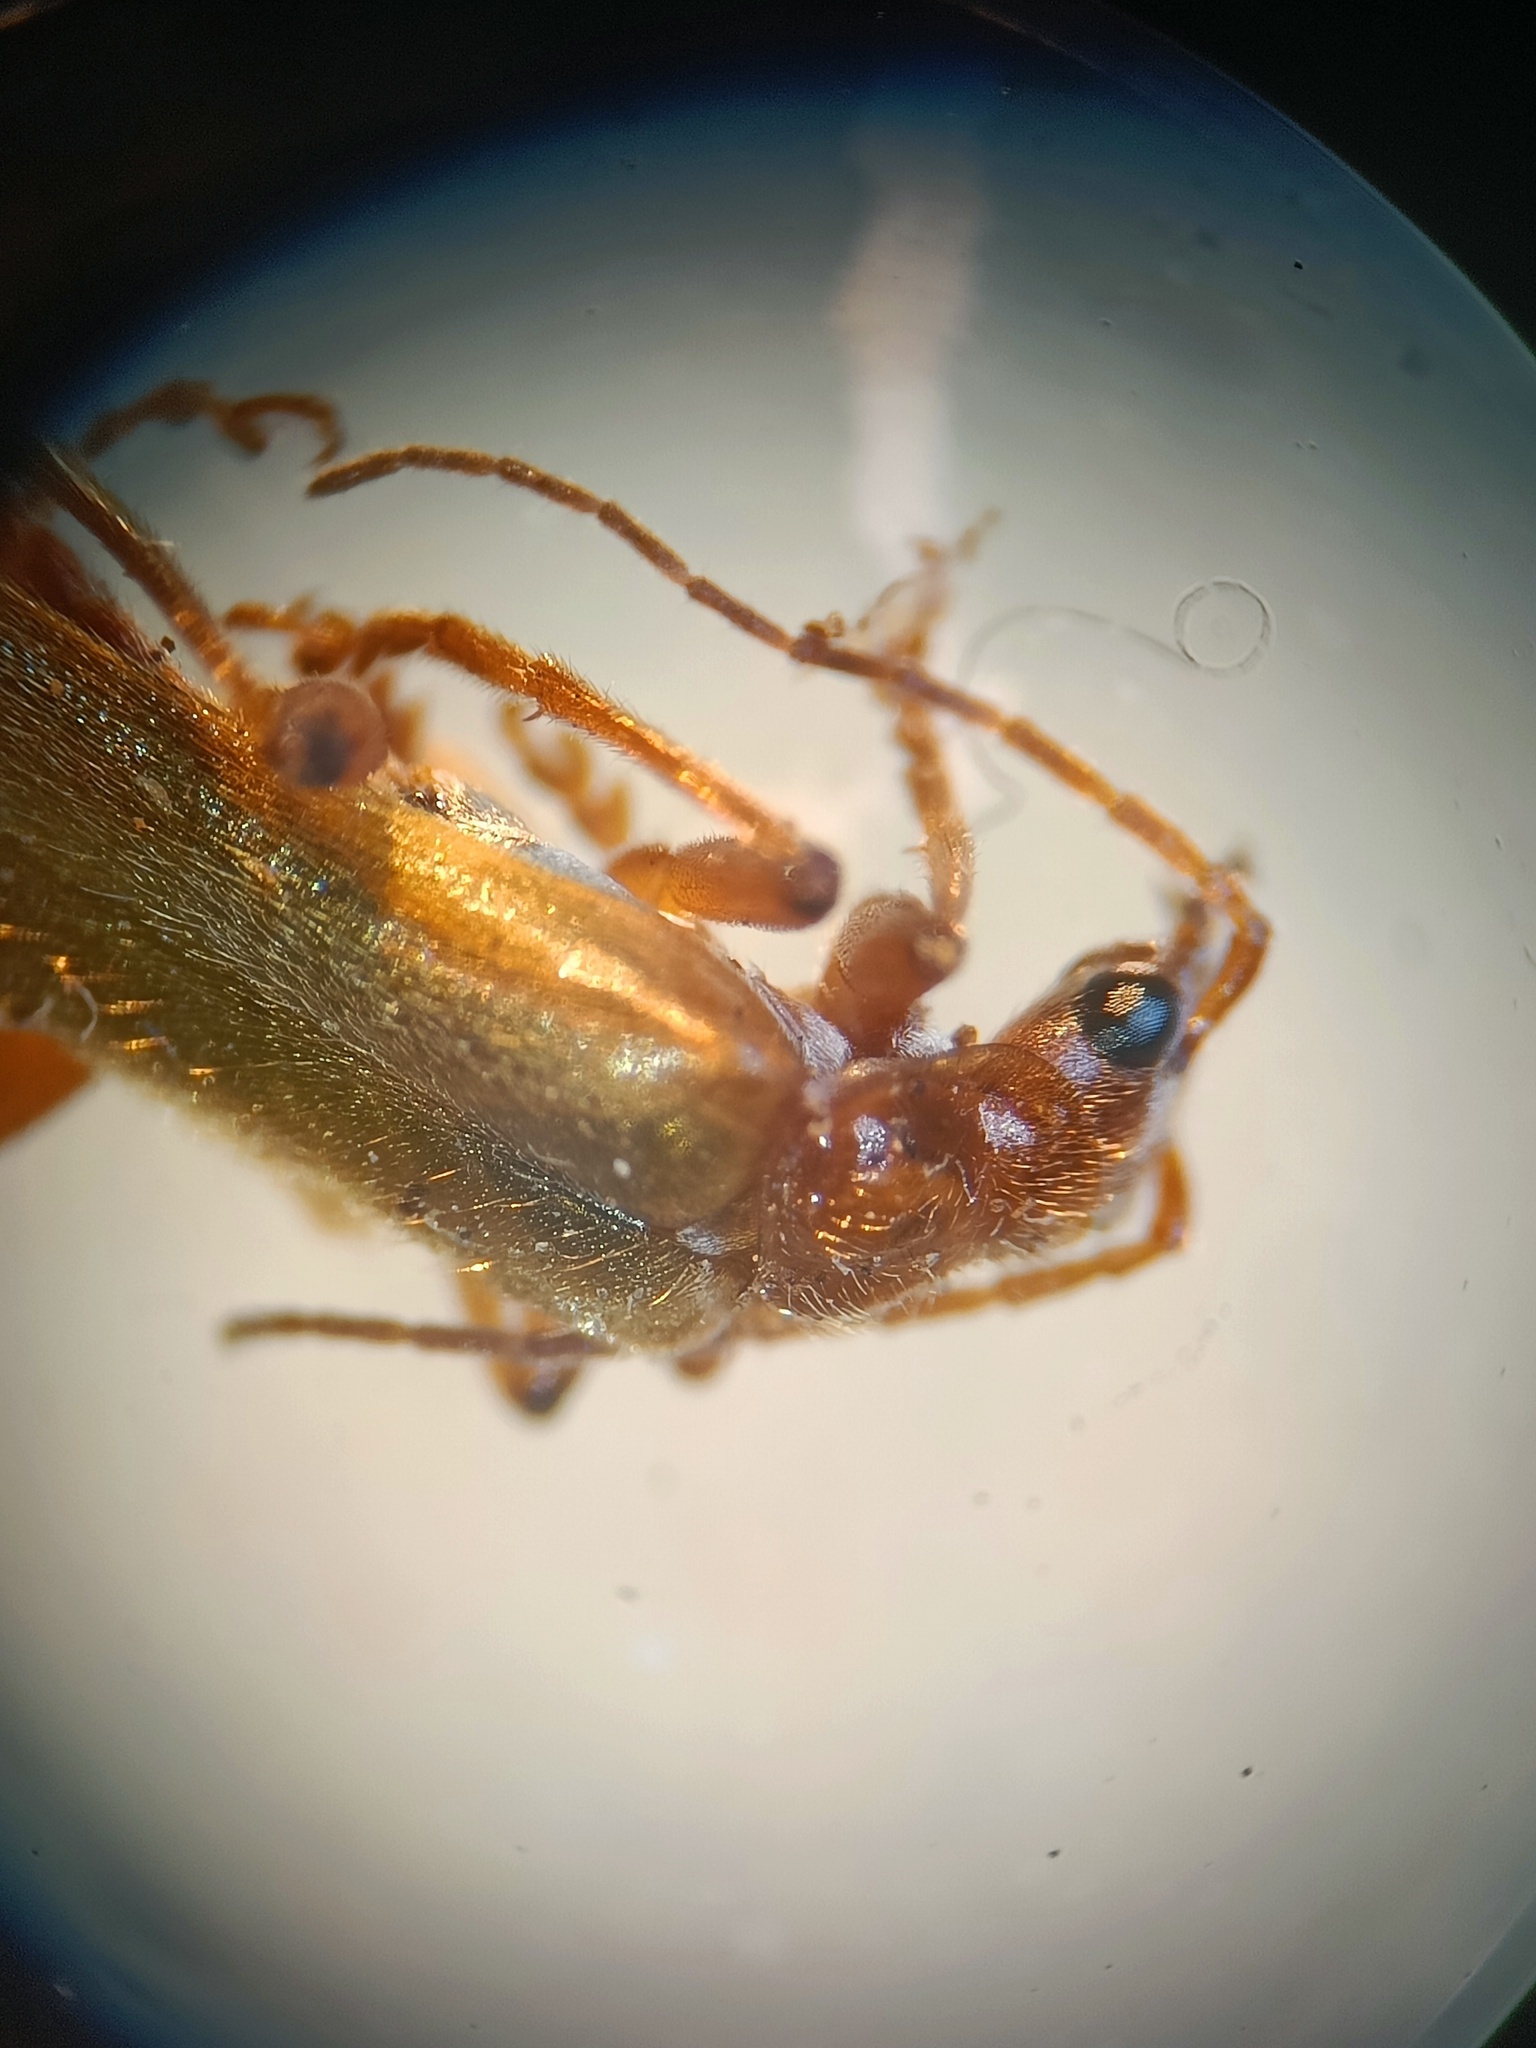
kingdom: Animalia
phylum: Arthropoda
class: Insecta
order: Coleoptera
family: Cantharidae
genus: Cantharis
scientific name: Cantharis cryptica
